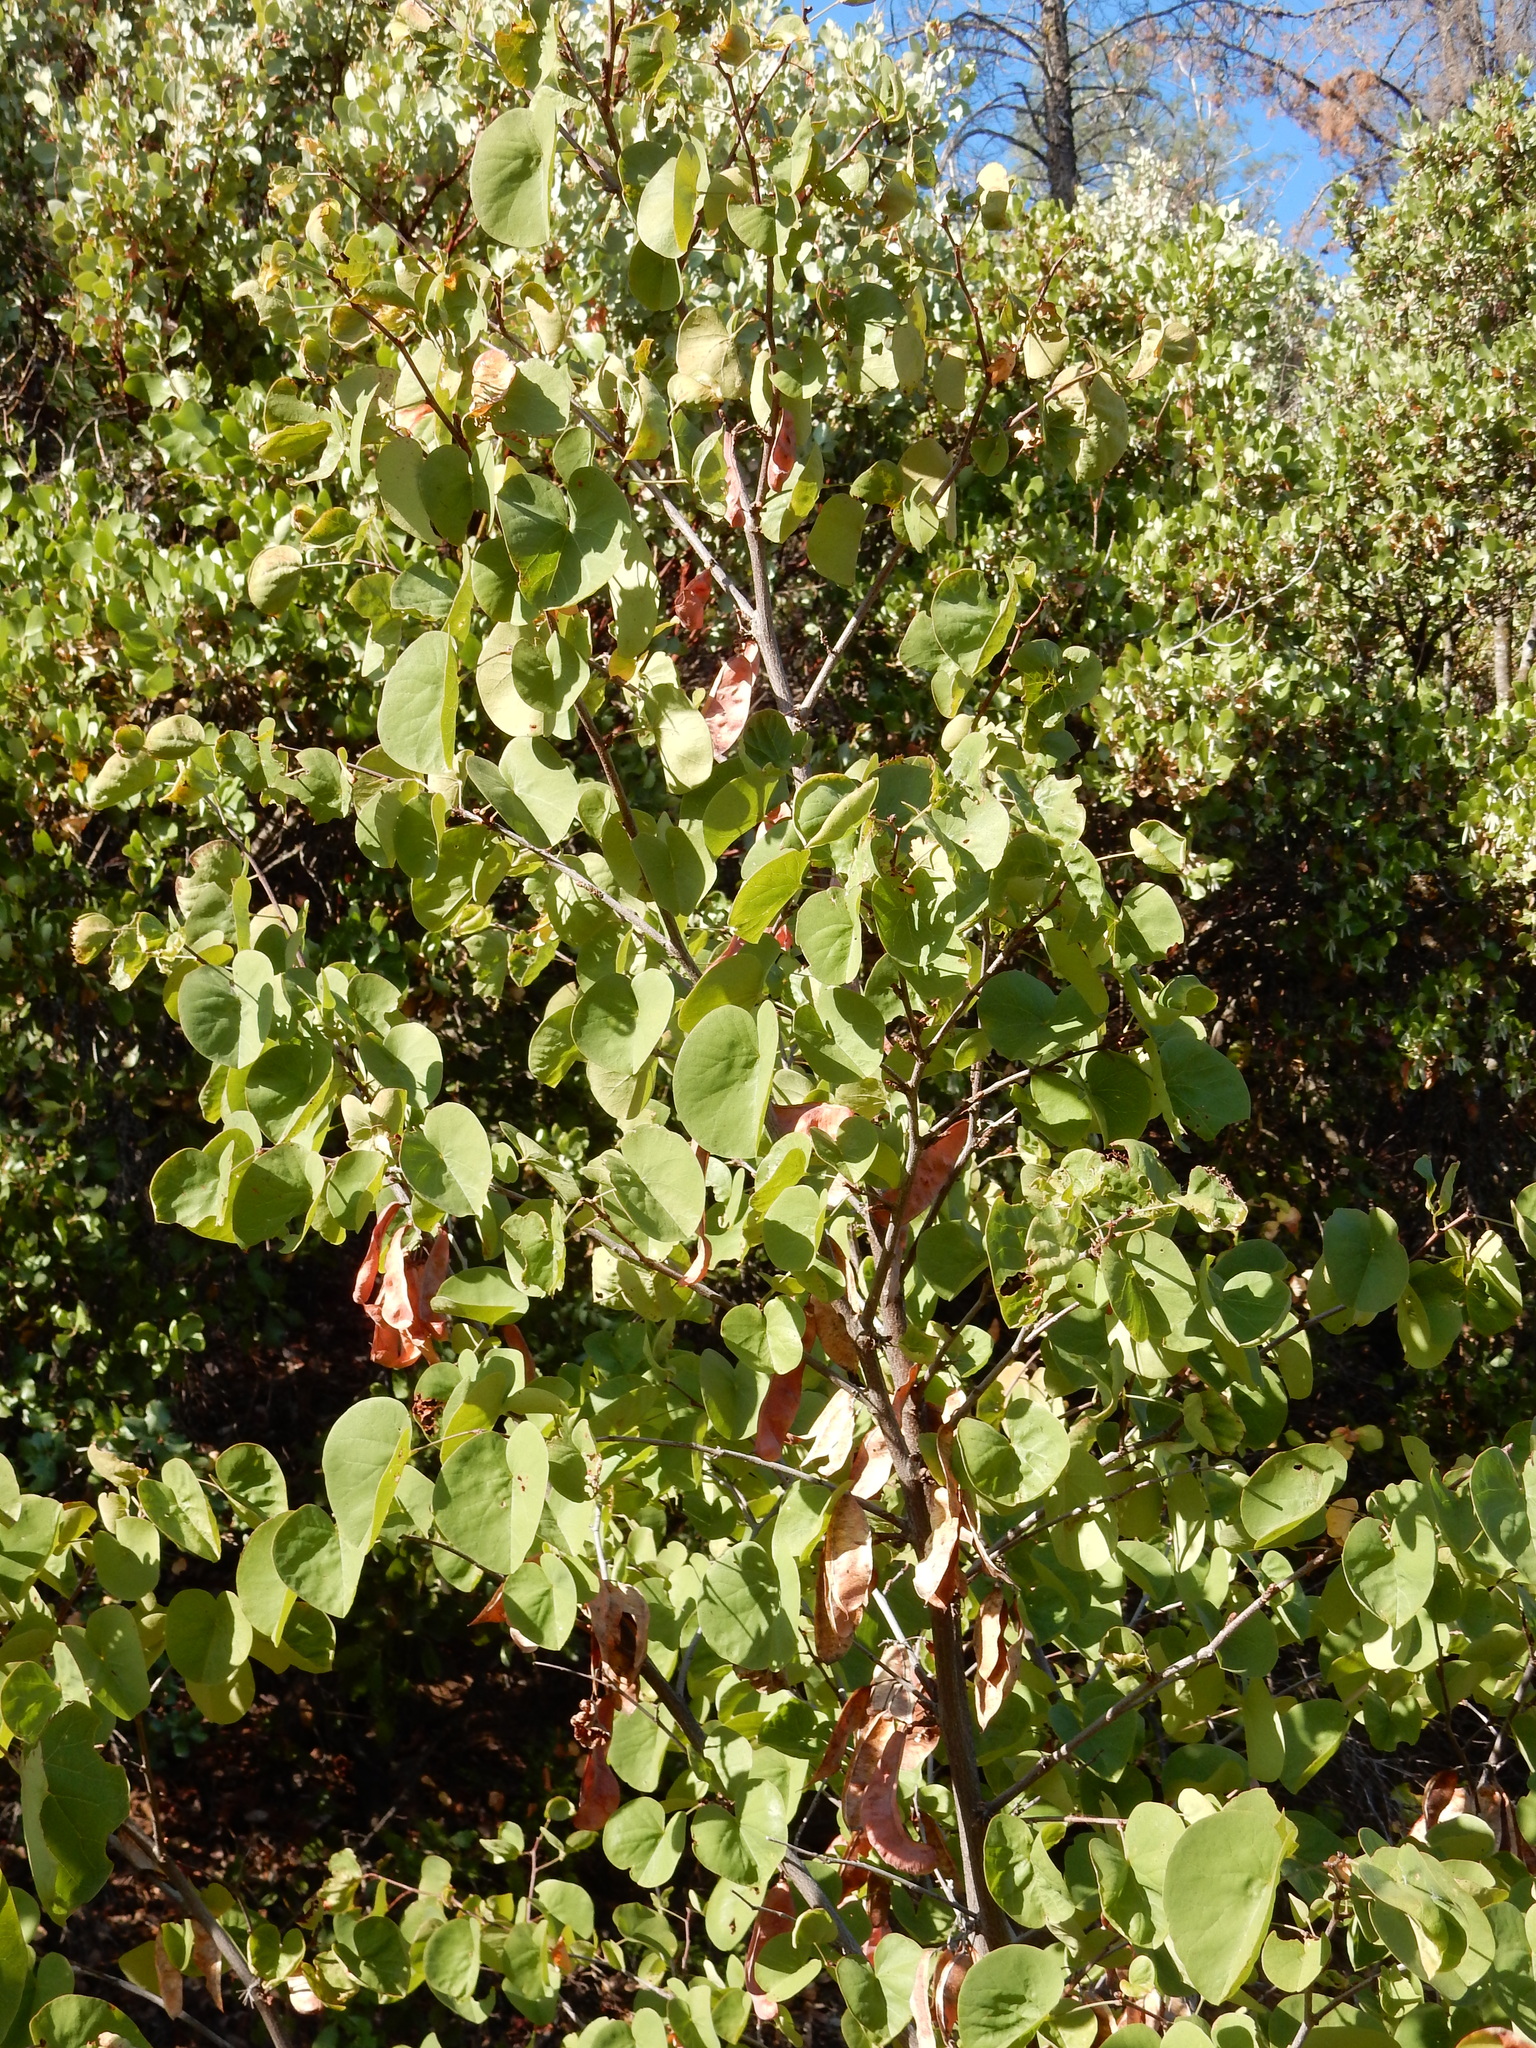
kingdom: Plantae
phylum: Tracheophyta
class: Magnoliopsida
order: Fabales
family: Fabaceae
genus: Cercis
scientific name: Cercis occidentalis
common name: California redbud
